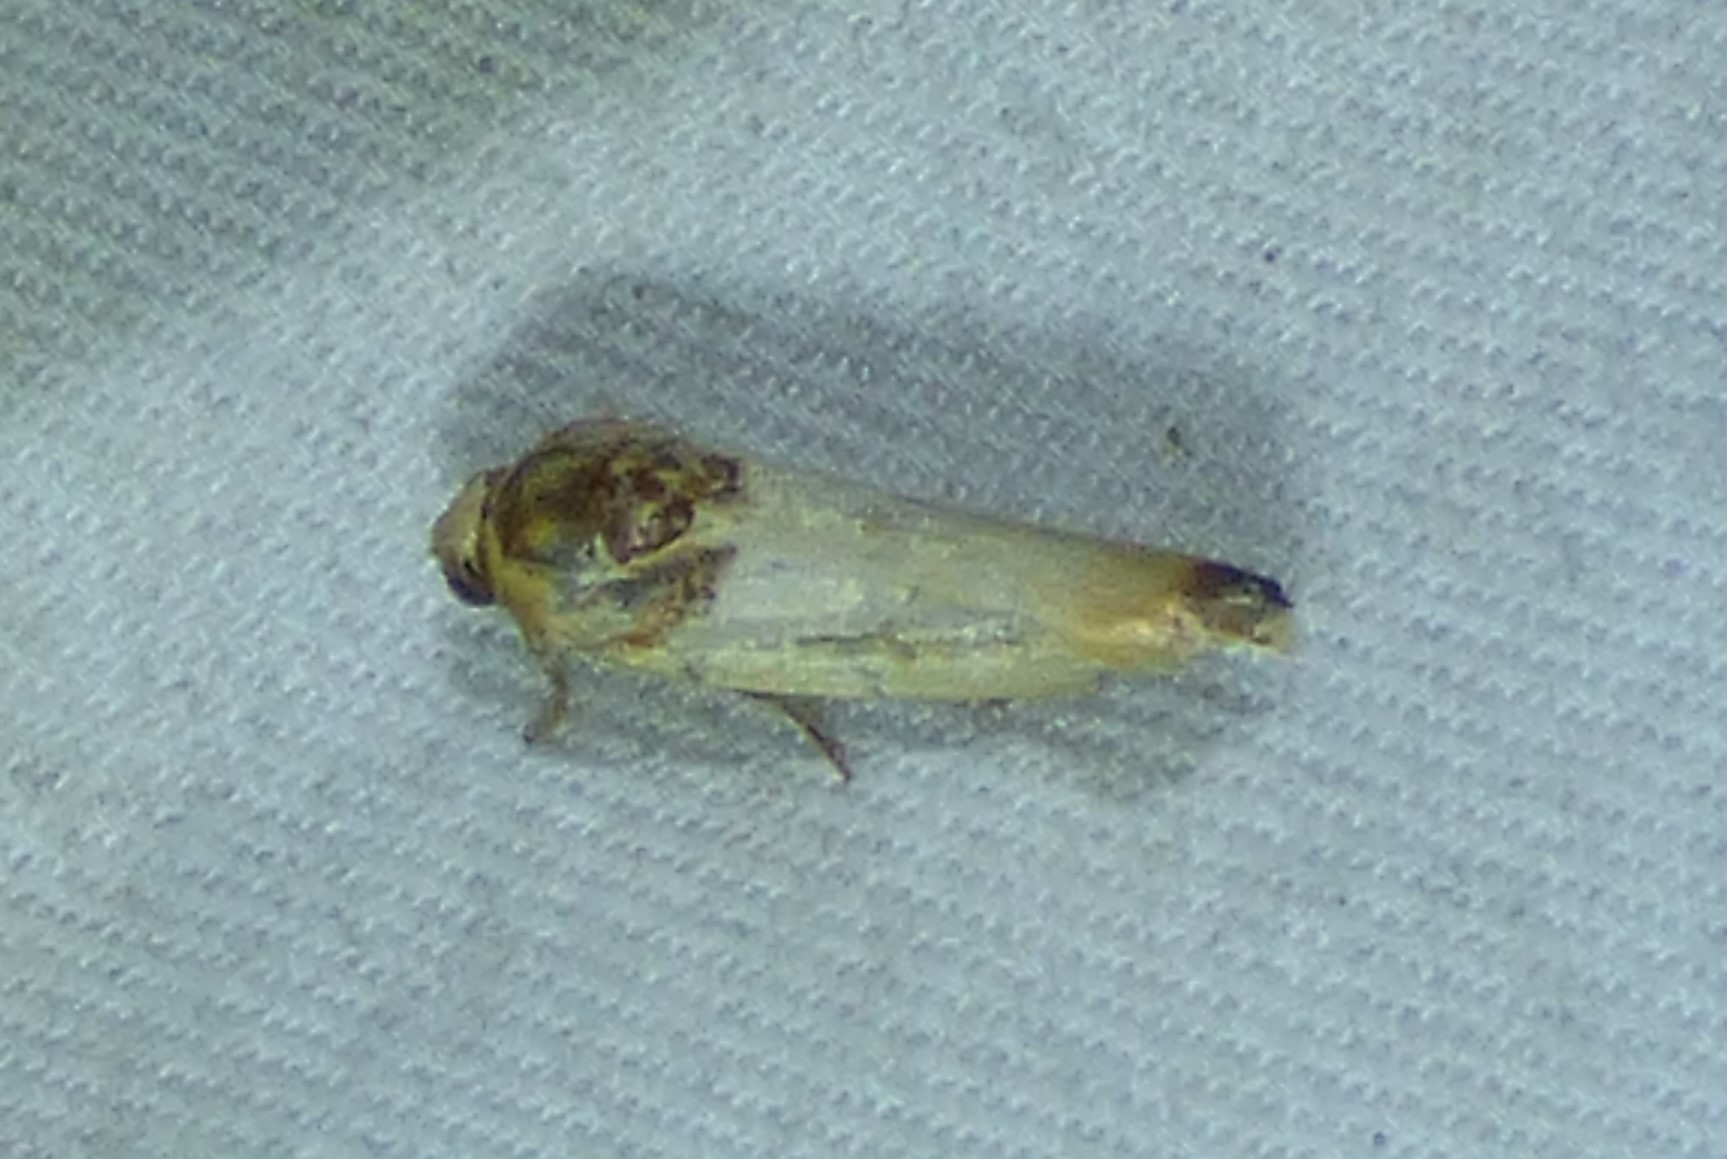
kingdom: Animalia
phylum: Arthropoda
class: Insecta
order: Lepidoptera
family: Noctuidae
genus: Spragueia
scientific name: Spragueia apicalis
